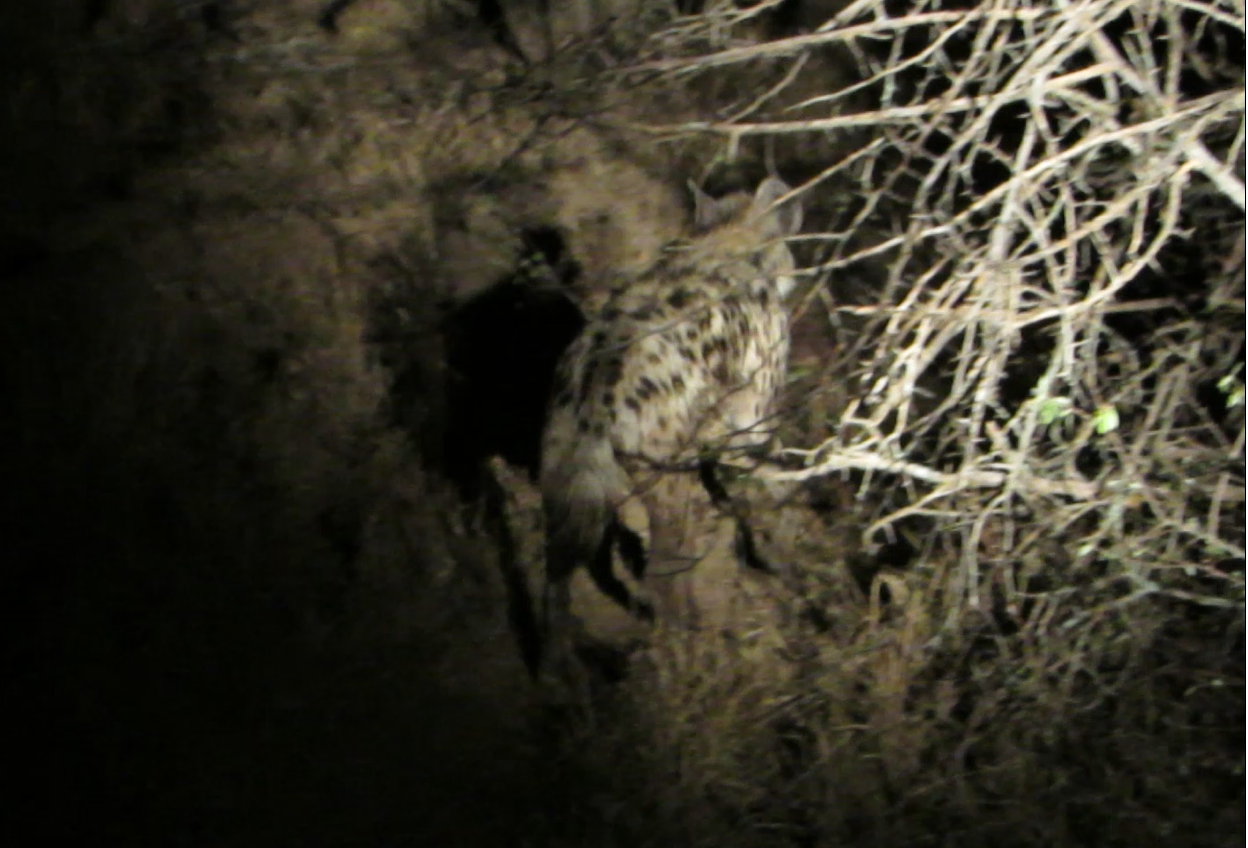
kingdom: Animalia
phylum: Chordata
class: Mammalia
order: Carnivora
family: Hyaenidae
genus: Crocuta
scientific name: Crocuta crocuta
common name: Spotted hyaena
